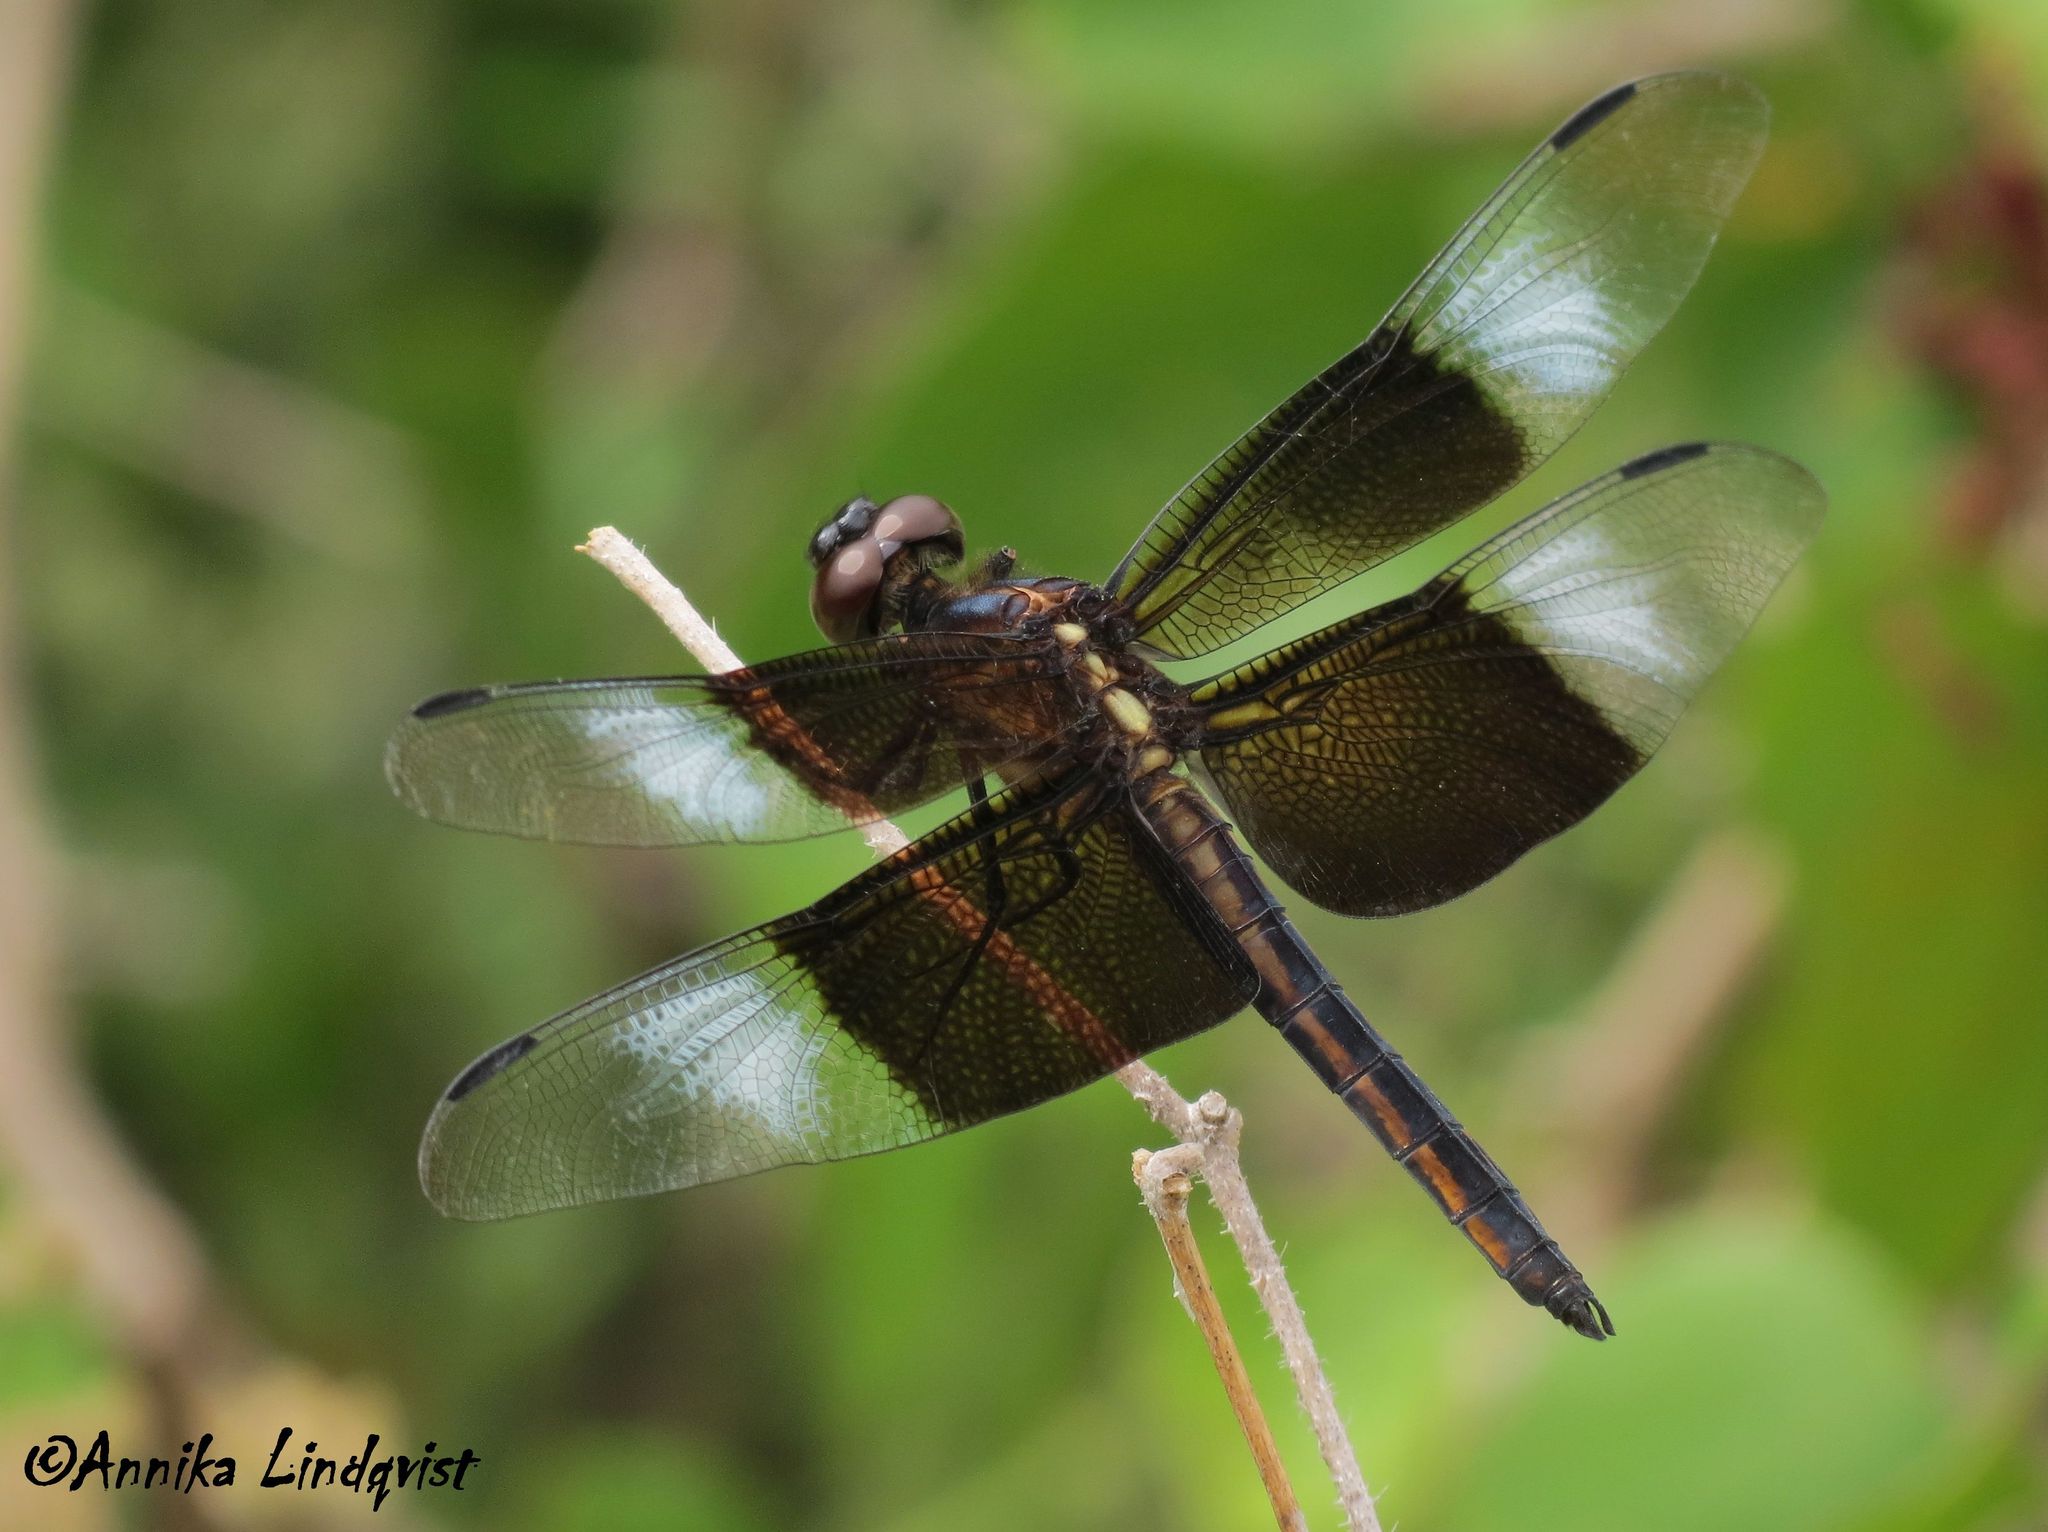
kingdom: Animalia
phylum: Arthropoda
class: Insecta
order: Odonata
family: Libellulidae
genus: Libellula
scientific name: Libellula luctuosa
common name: Widow skimmer
